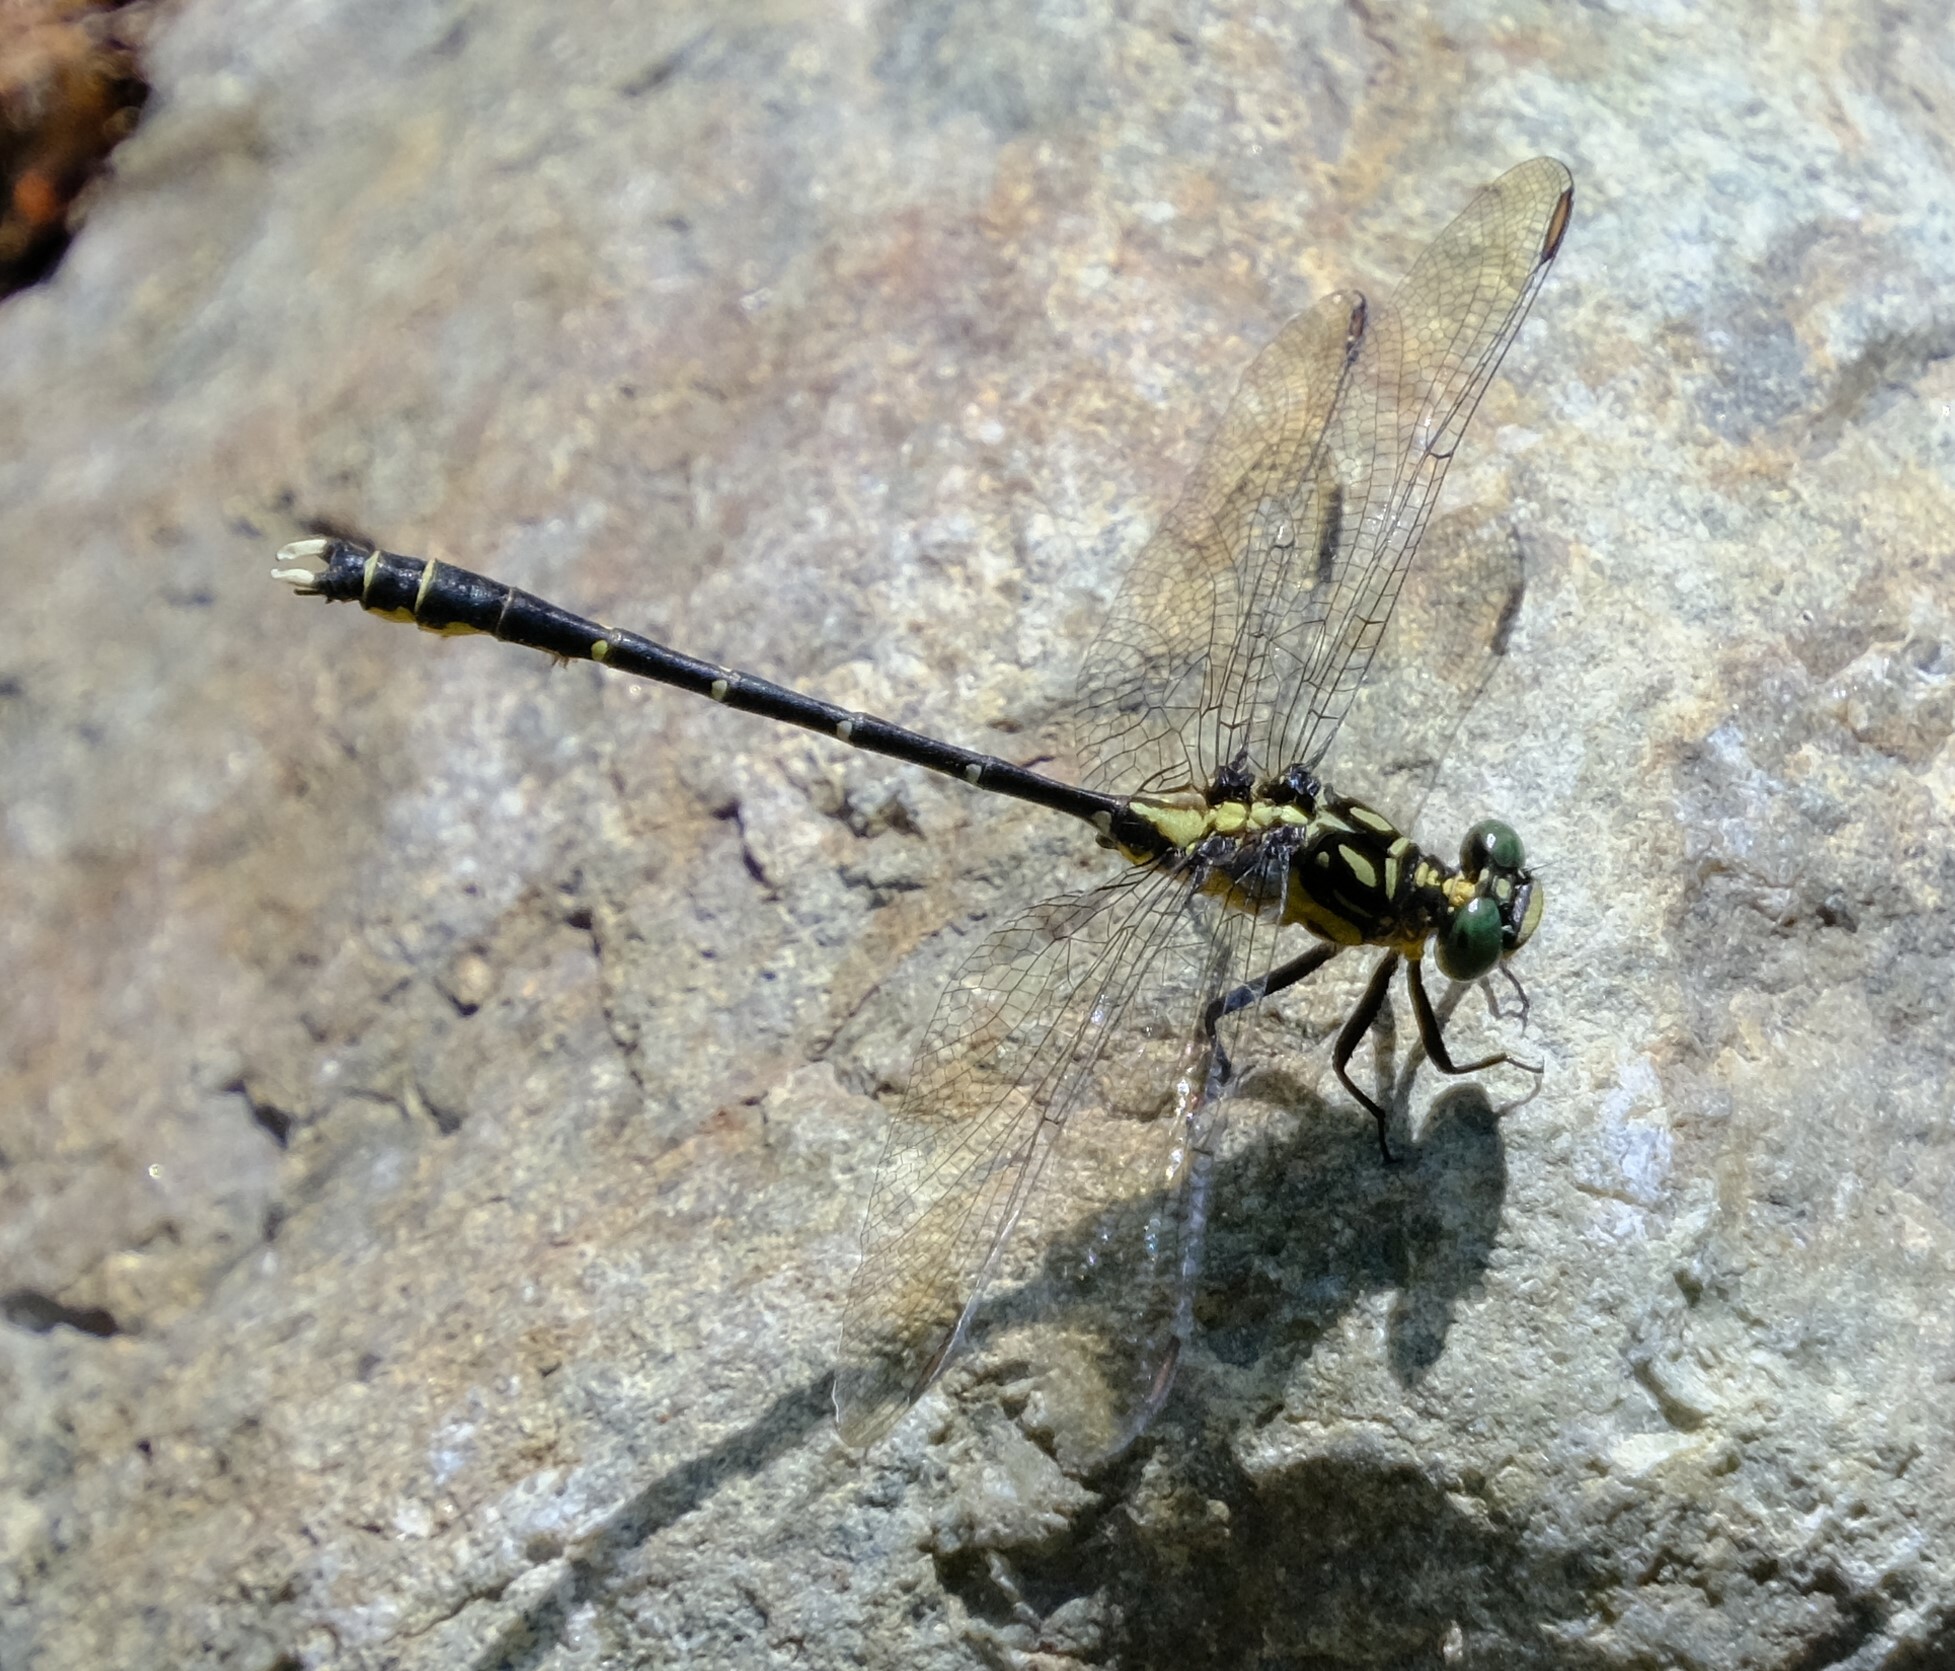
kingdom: Animalia
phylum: Arthropoda
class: Insecta
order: Odonata
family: Gomphidae
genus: Hemigomphus
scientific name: Hemigomphus gouldii
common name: Southern vicetail
